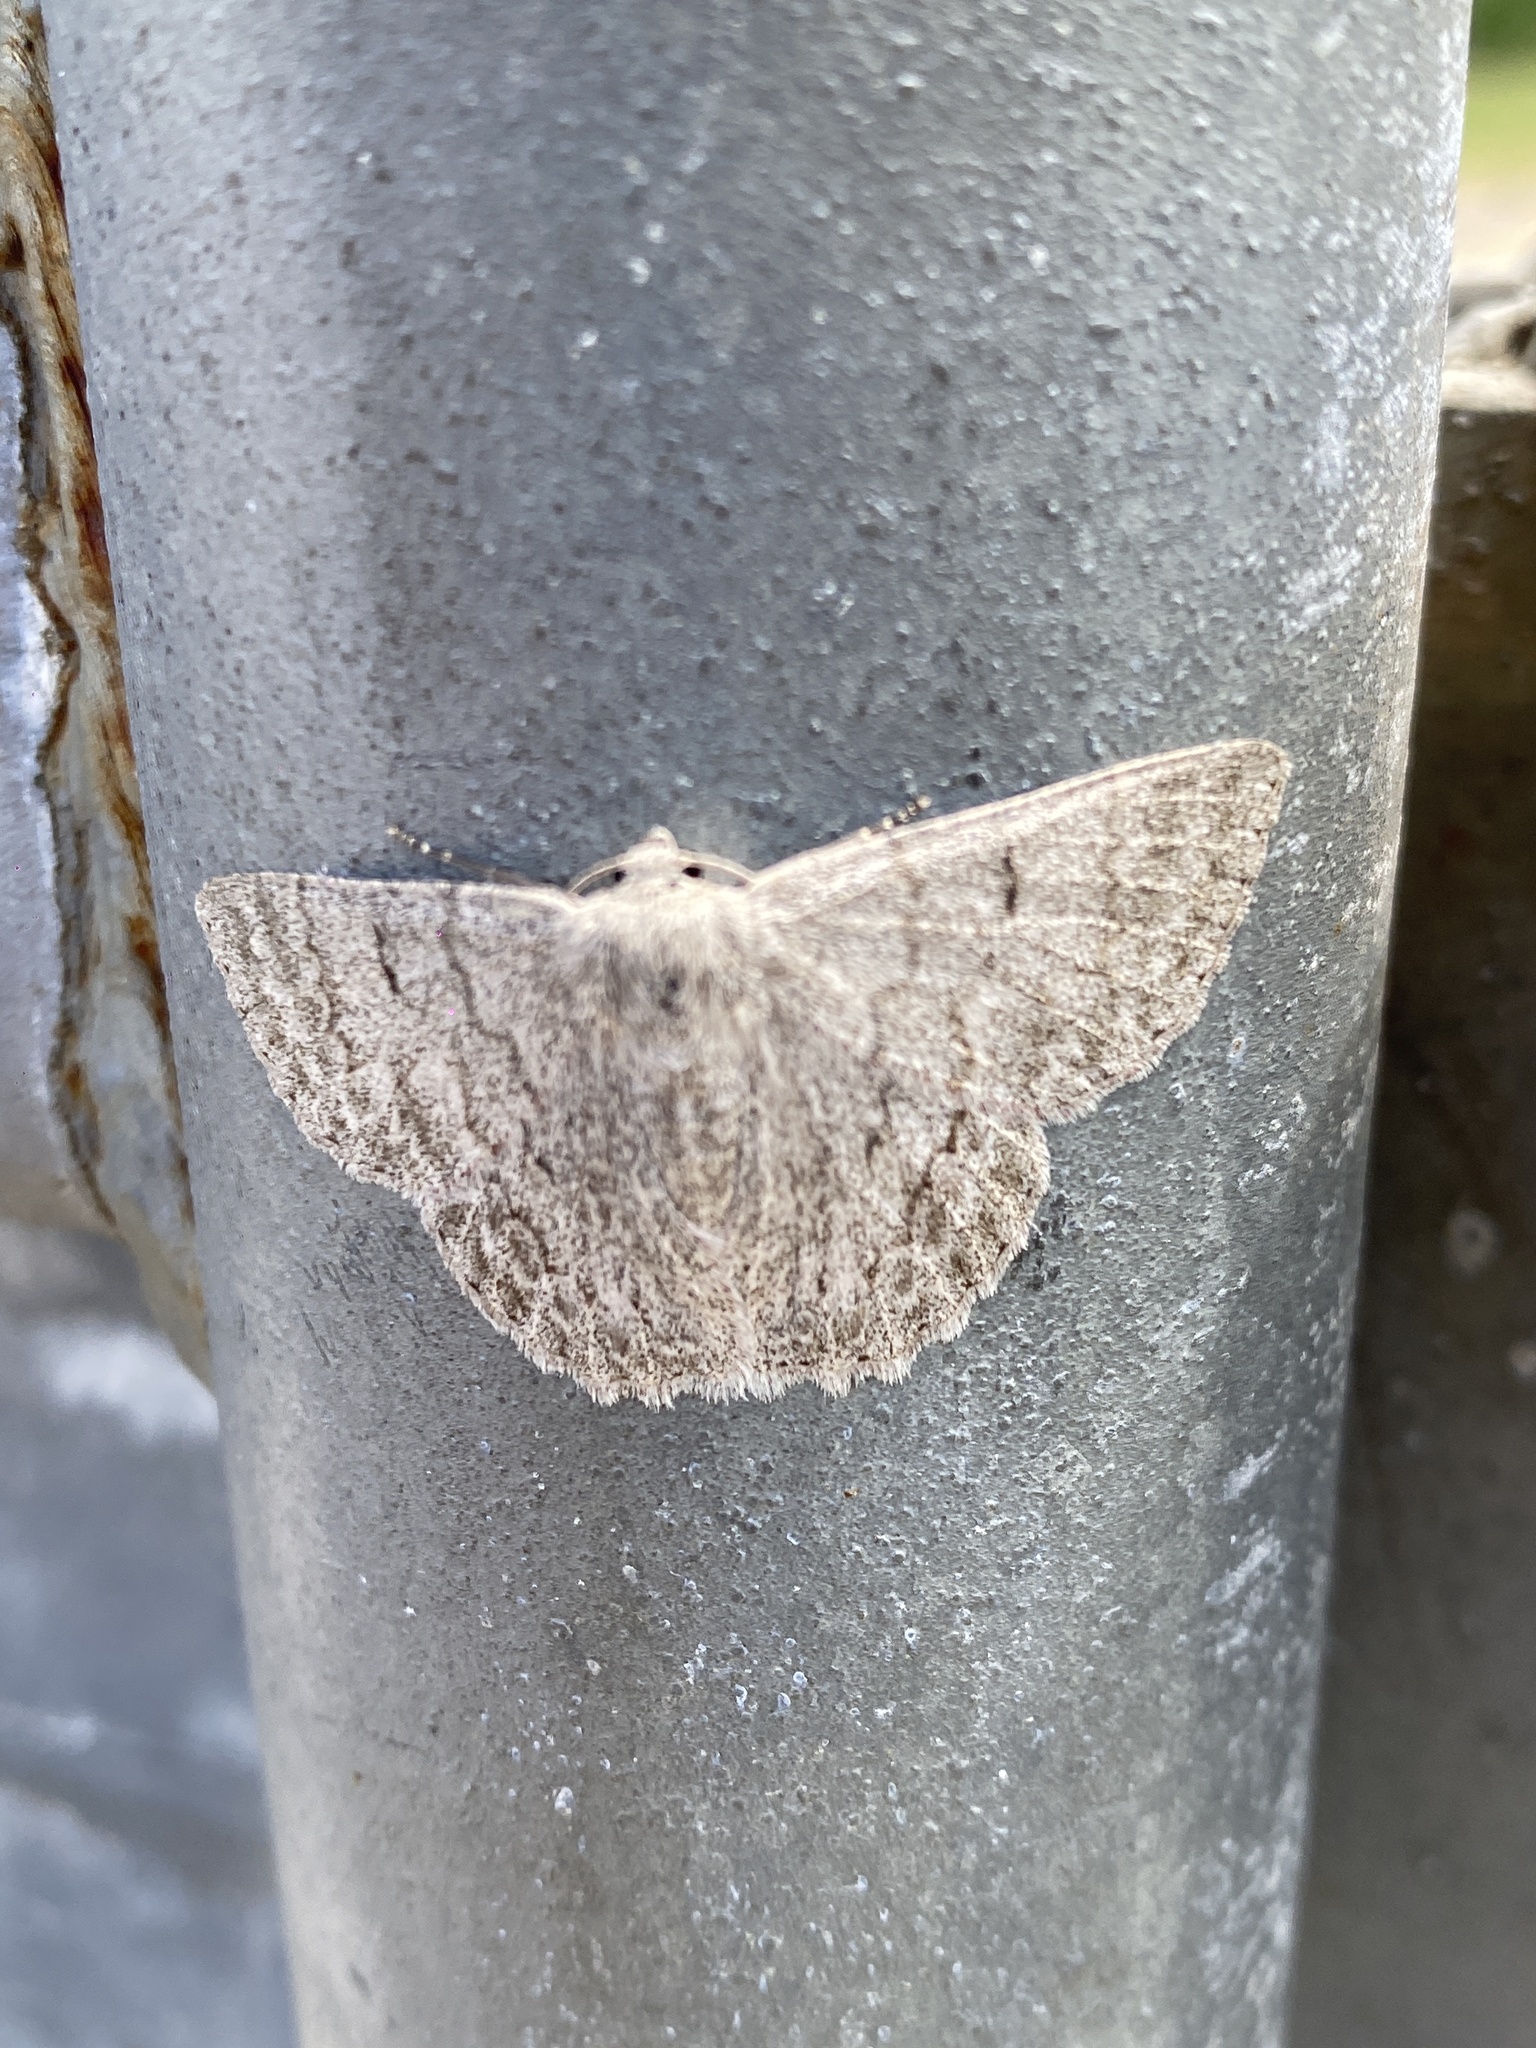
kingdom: Animalia
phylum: Arthropoda
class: Insecta
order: Lepidoptera
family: Geometridae
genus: Crypsiphona
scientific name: Crypsiphona ocultaria
